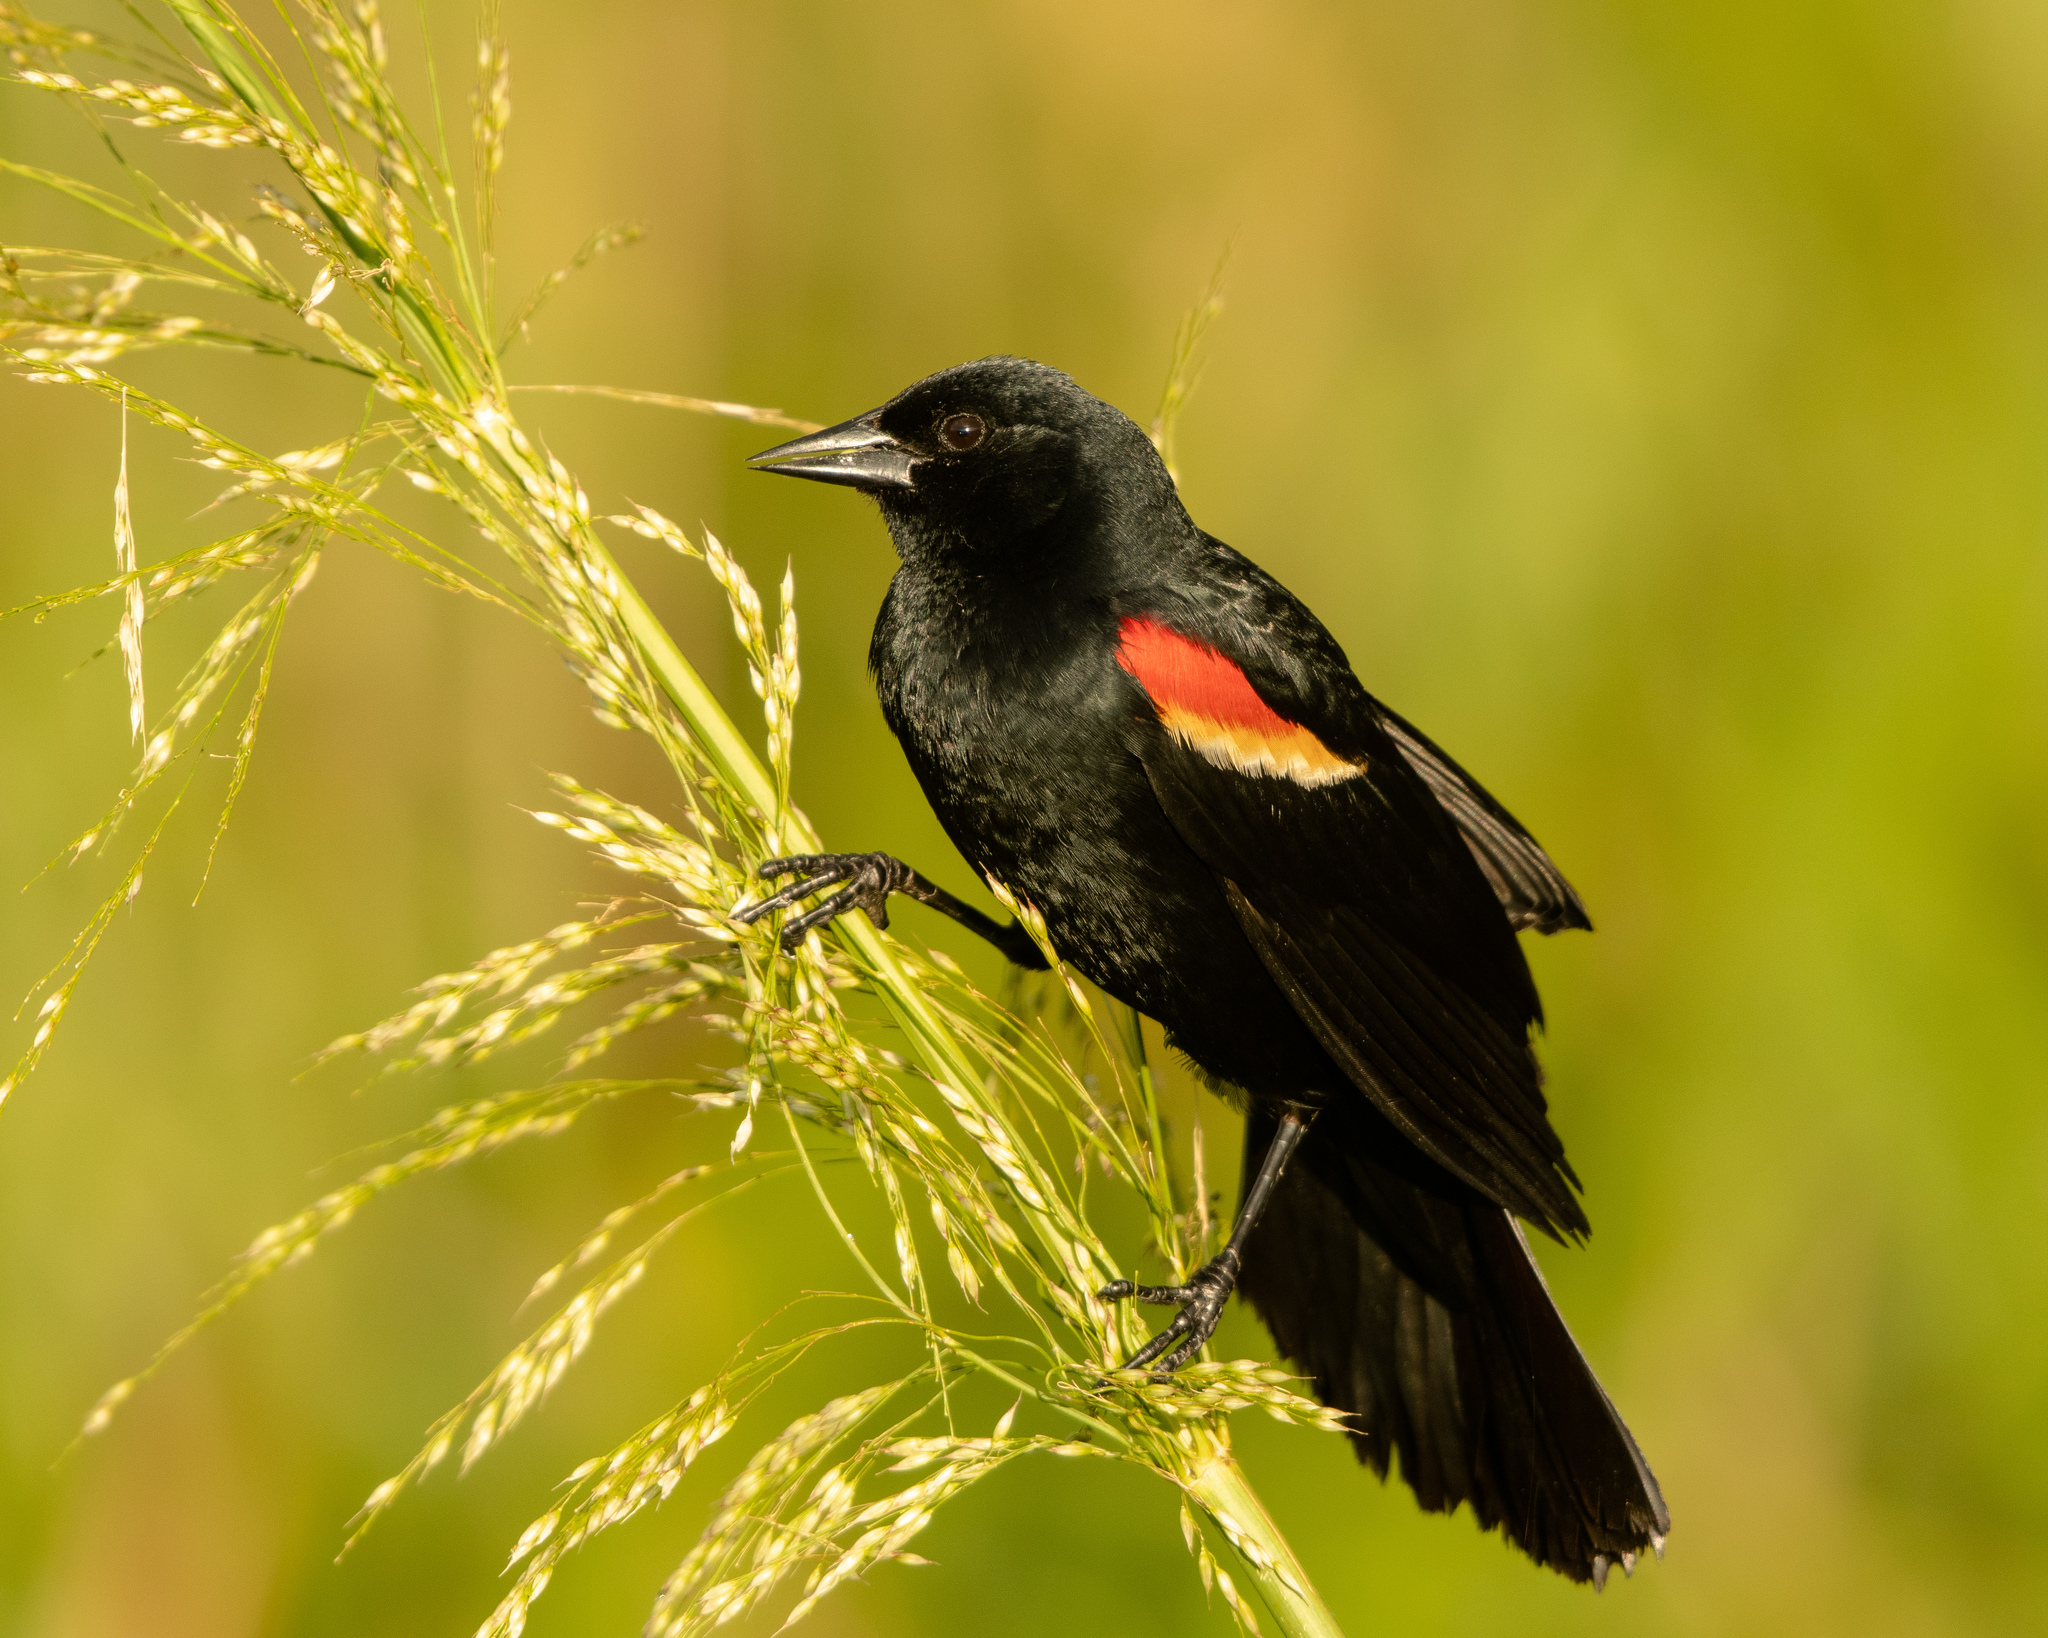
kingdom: Animalia
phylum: Chordata
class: Aves
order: Passeriformes
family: Icteridae
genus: Agelaius
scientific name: Agelaius phoeniceus
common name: Red-winged blackbird
